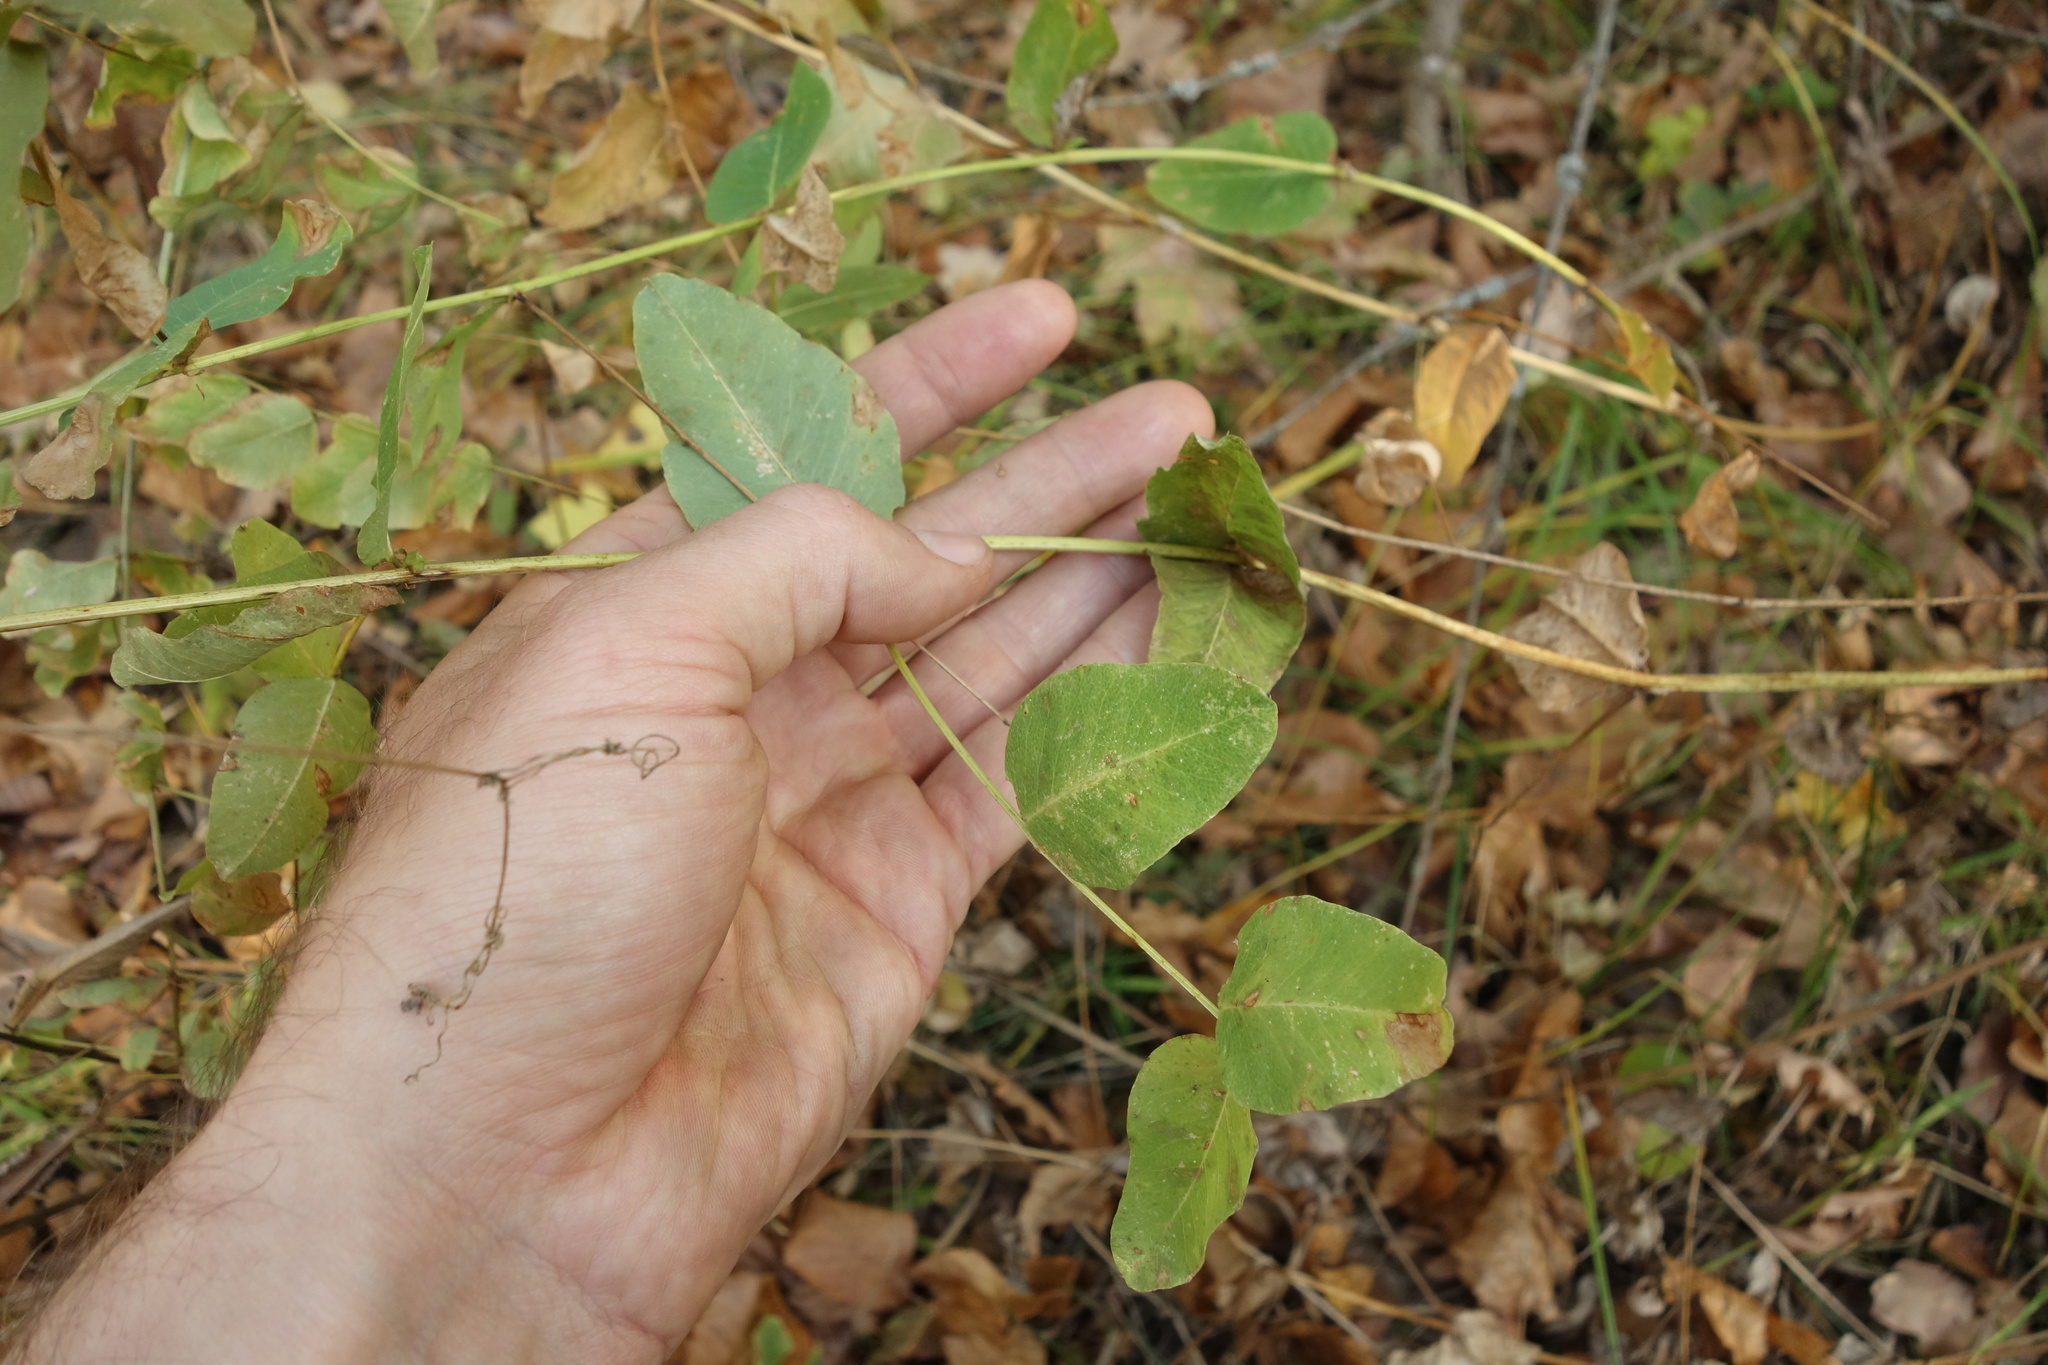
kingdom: Plantae
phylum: Tracheophyta
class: Magnoliopsida
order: Fabales
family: Fabaceae
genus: Vicia
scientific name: Vicia pisiformis
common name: Pale-flower vetch
